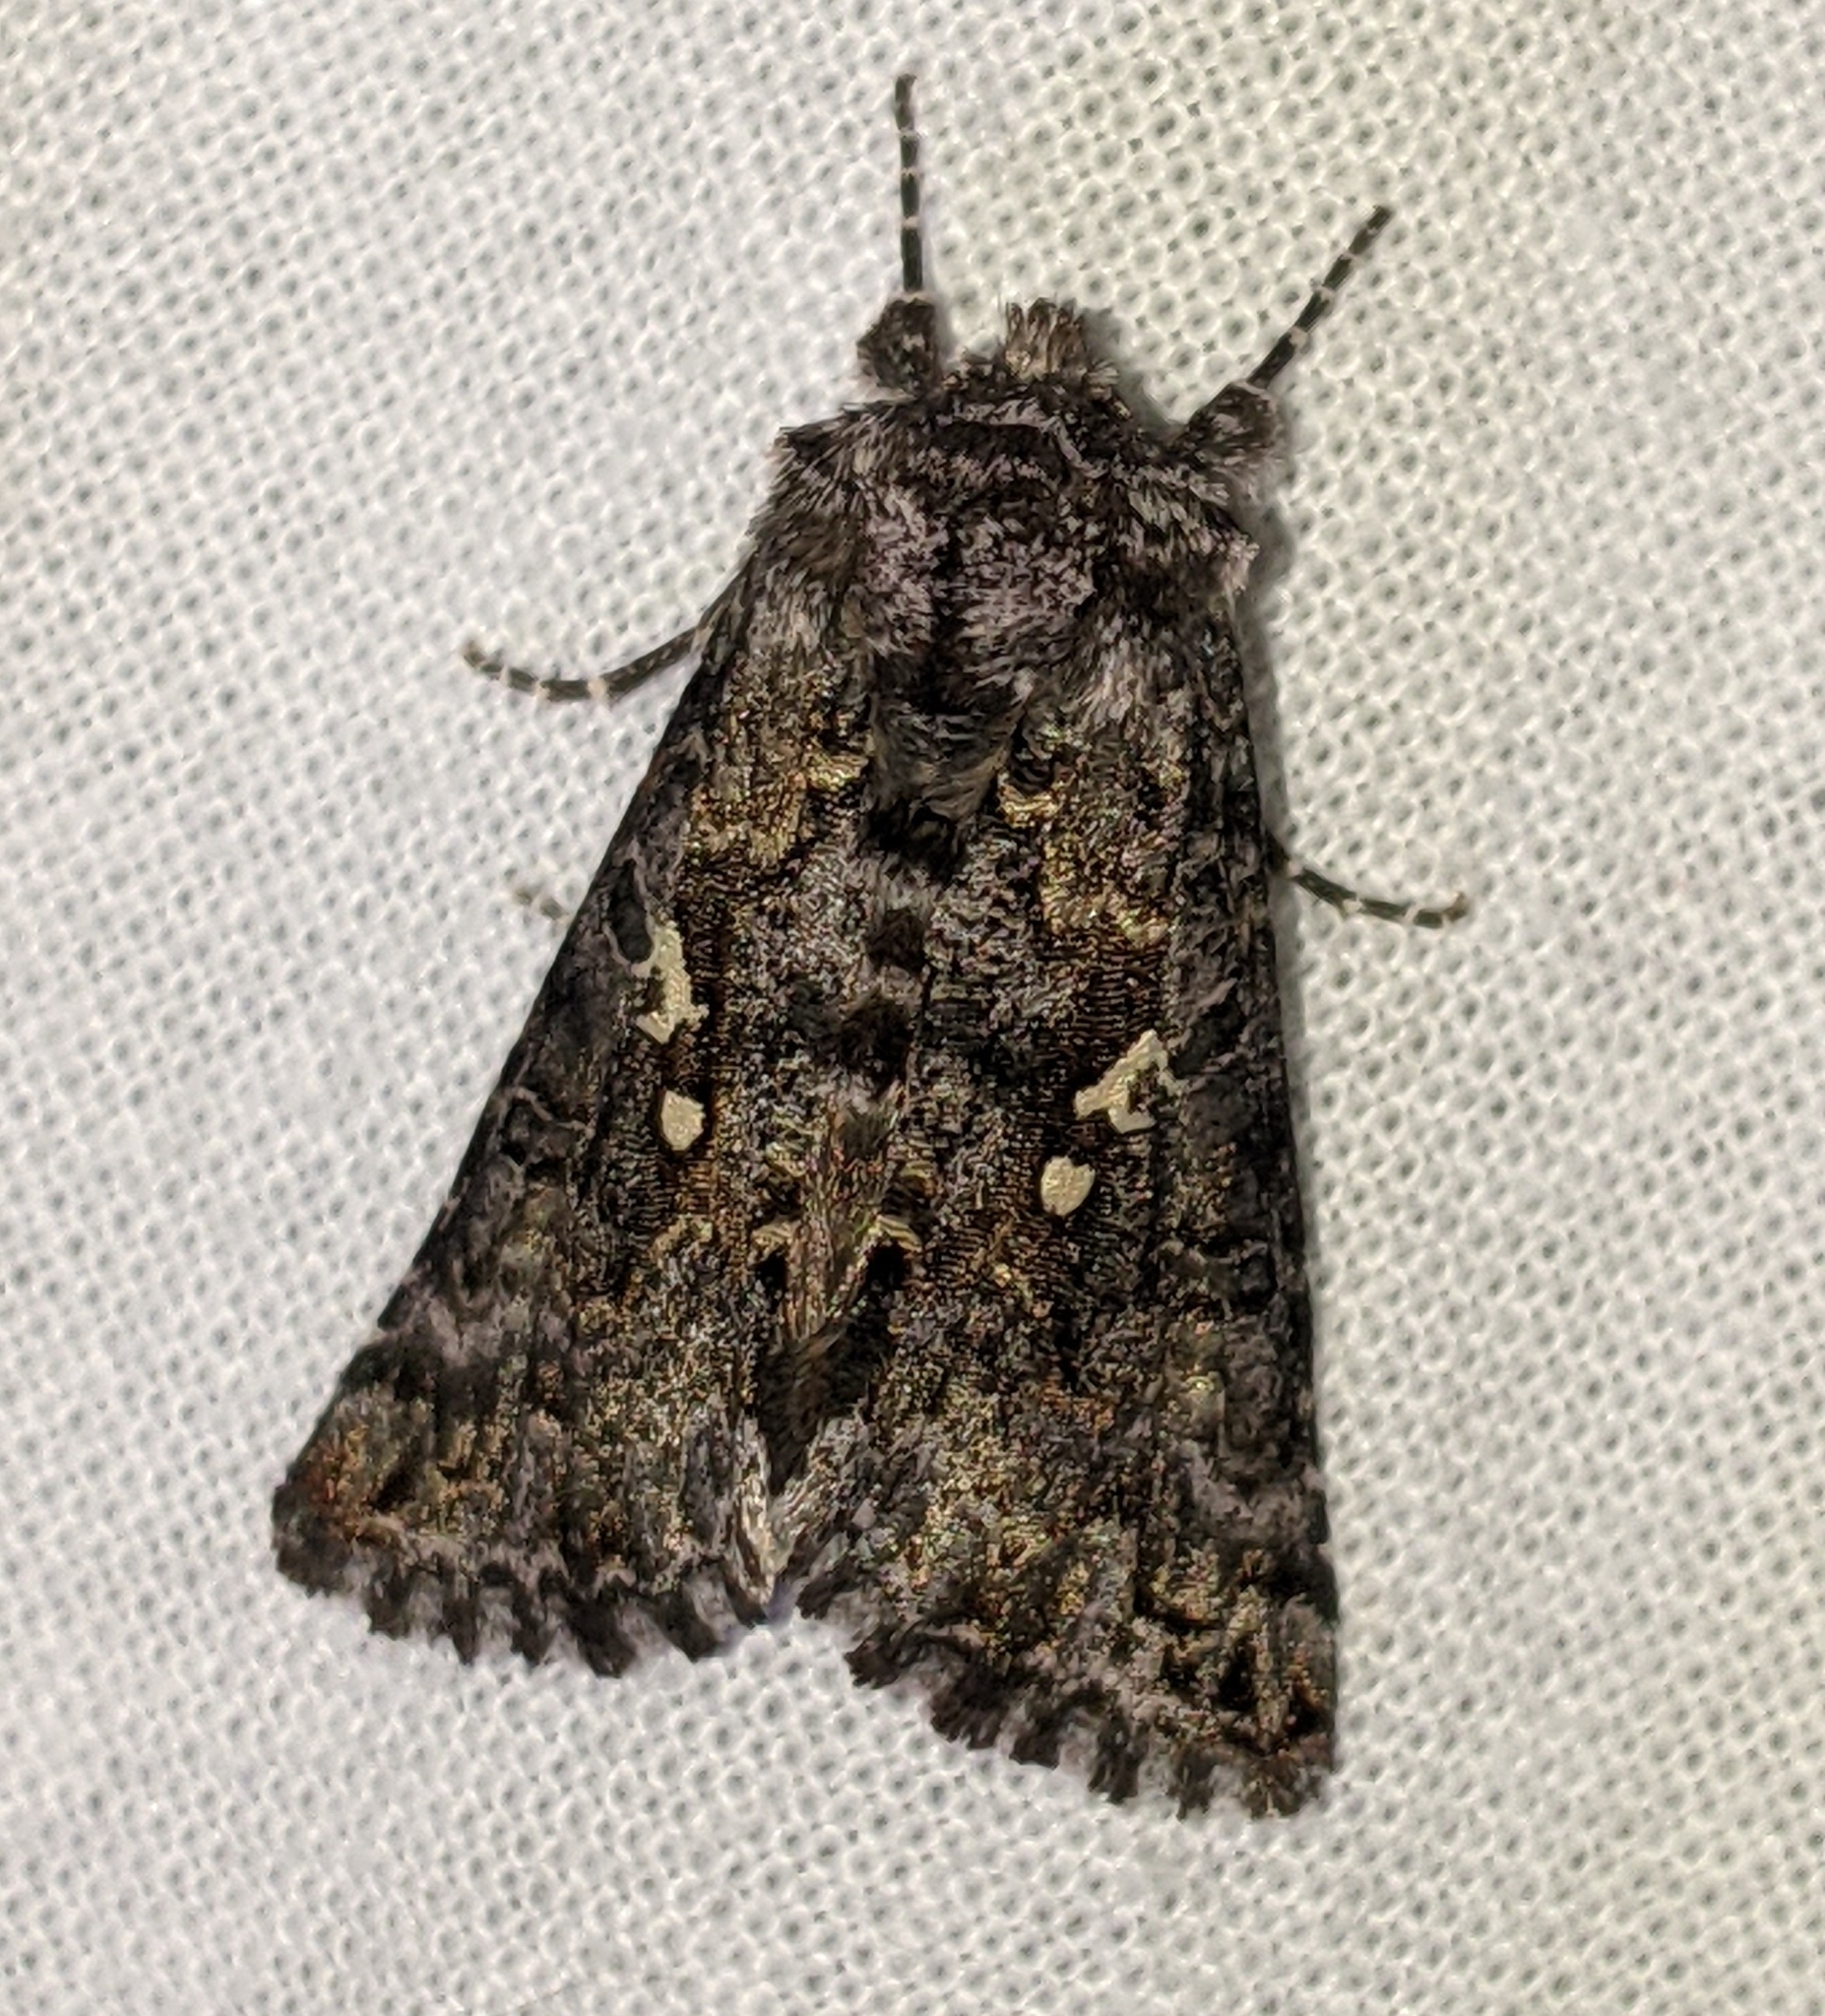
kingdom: Animalia
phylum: Arthropoda
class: Insecta
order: Lepidoptera
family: Noctuidae
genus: Syngrapha
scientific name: Syngrapha abstrusa
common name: Abstruse false looper moth
